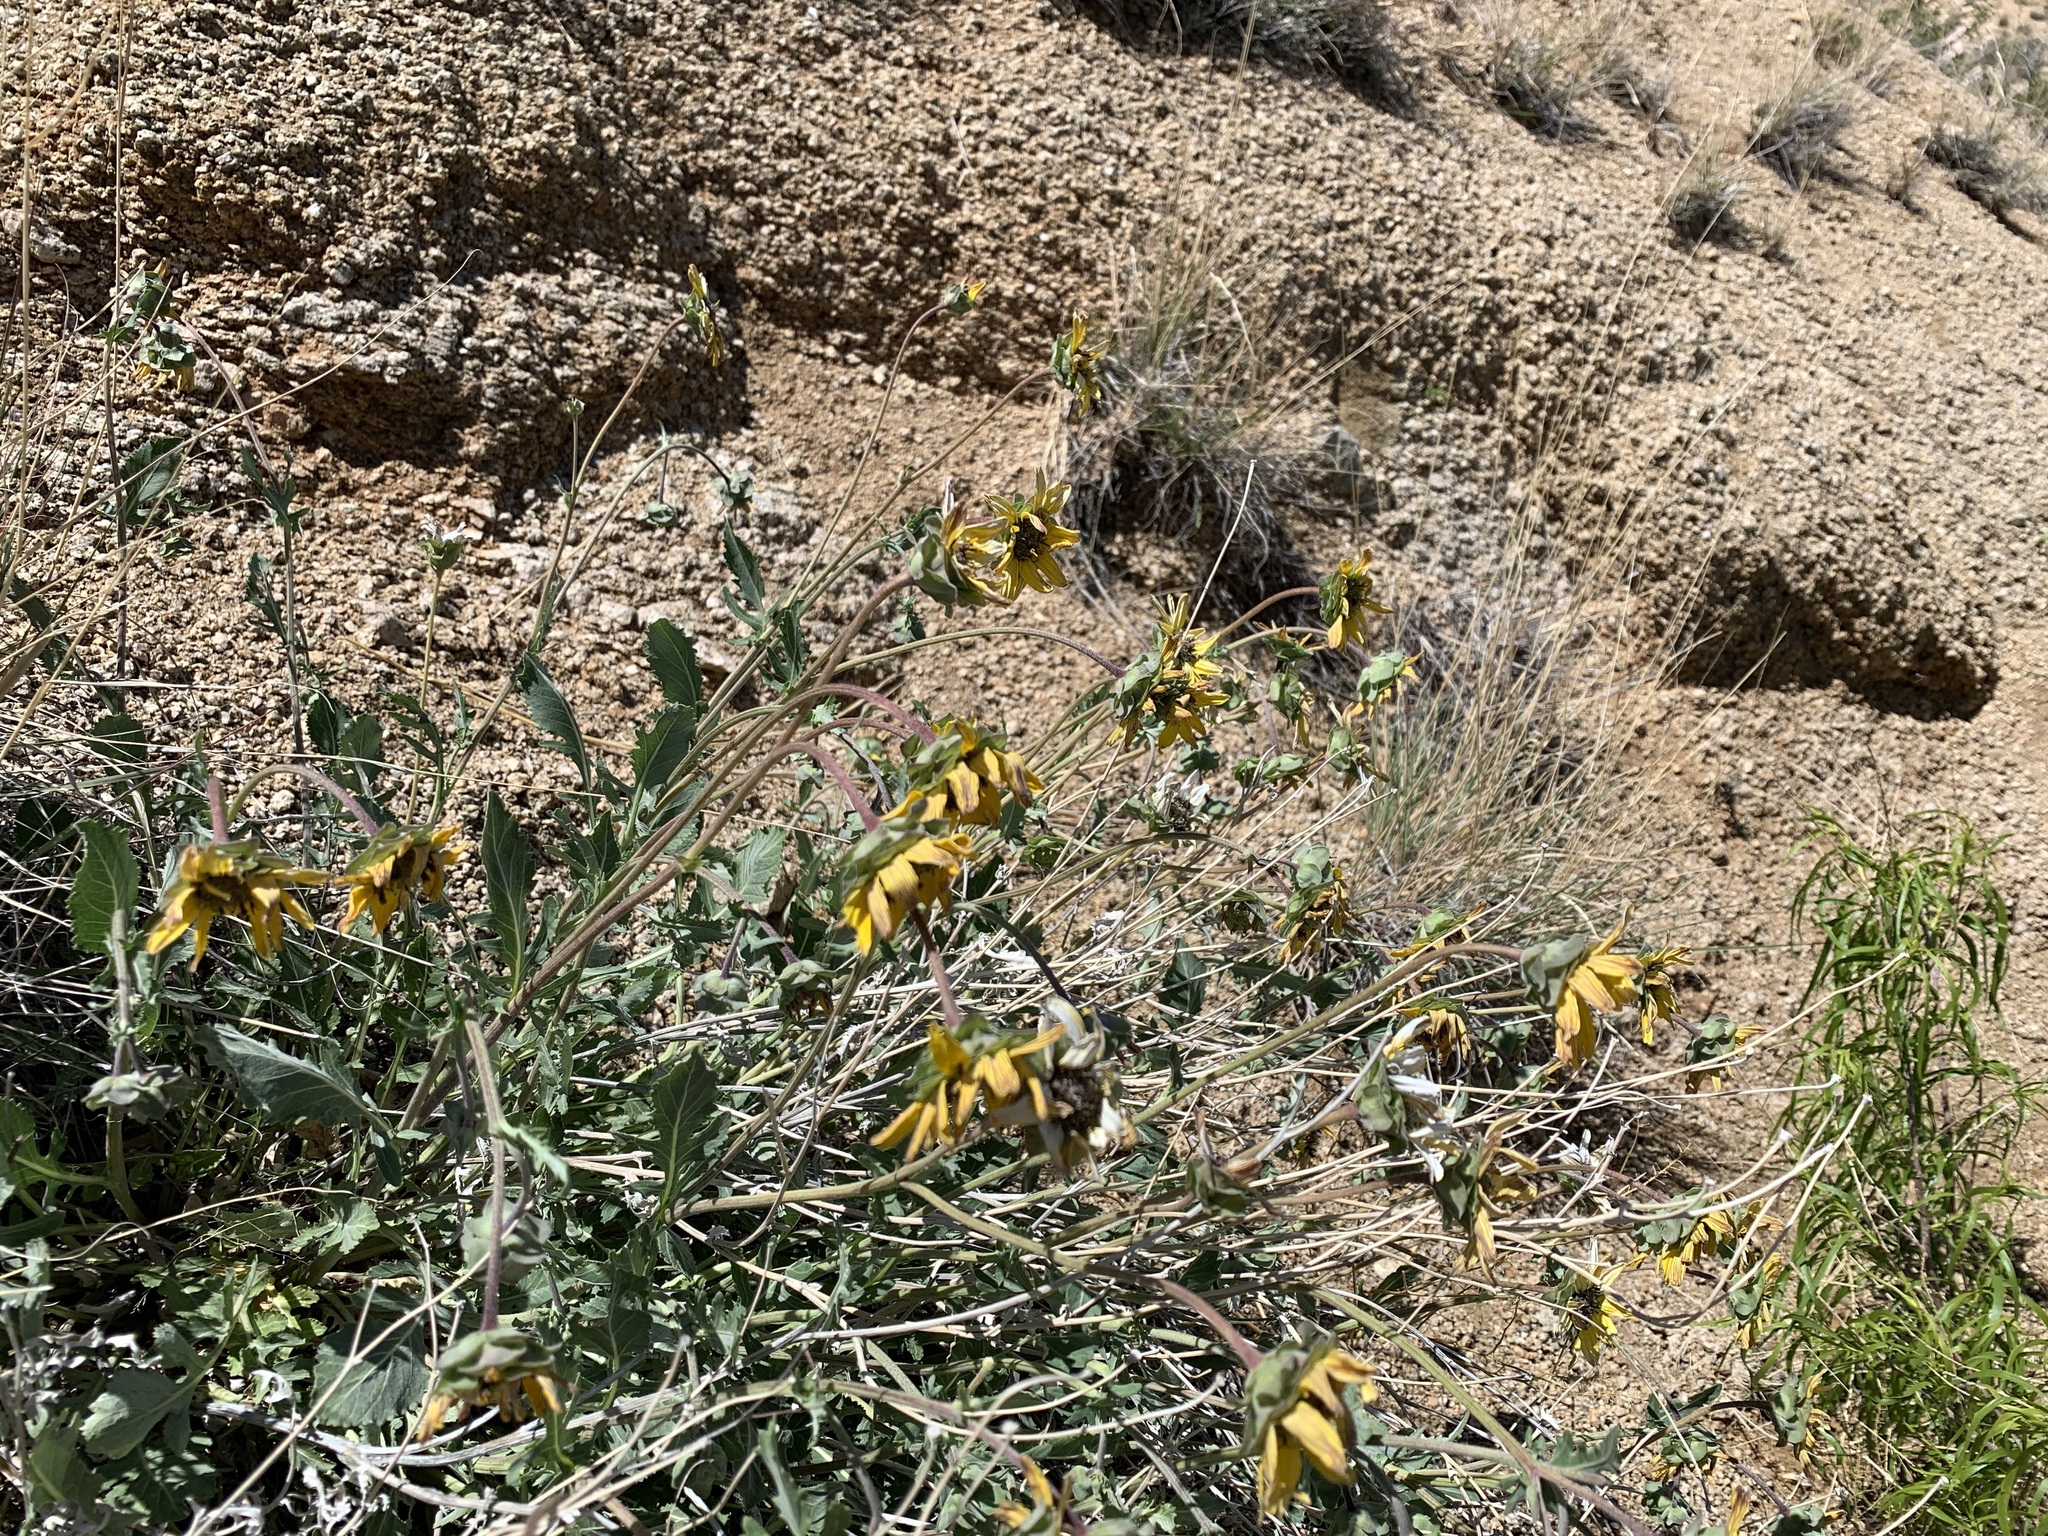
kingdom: Plantae
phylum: Tracheophyta
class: Magnoliopsida
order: Asterales
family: Asteraceae
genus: Berlandiera
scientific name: Berlandiera lyrata
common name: Chocolate-flower
